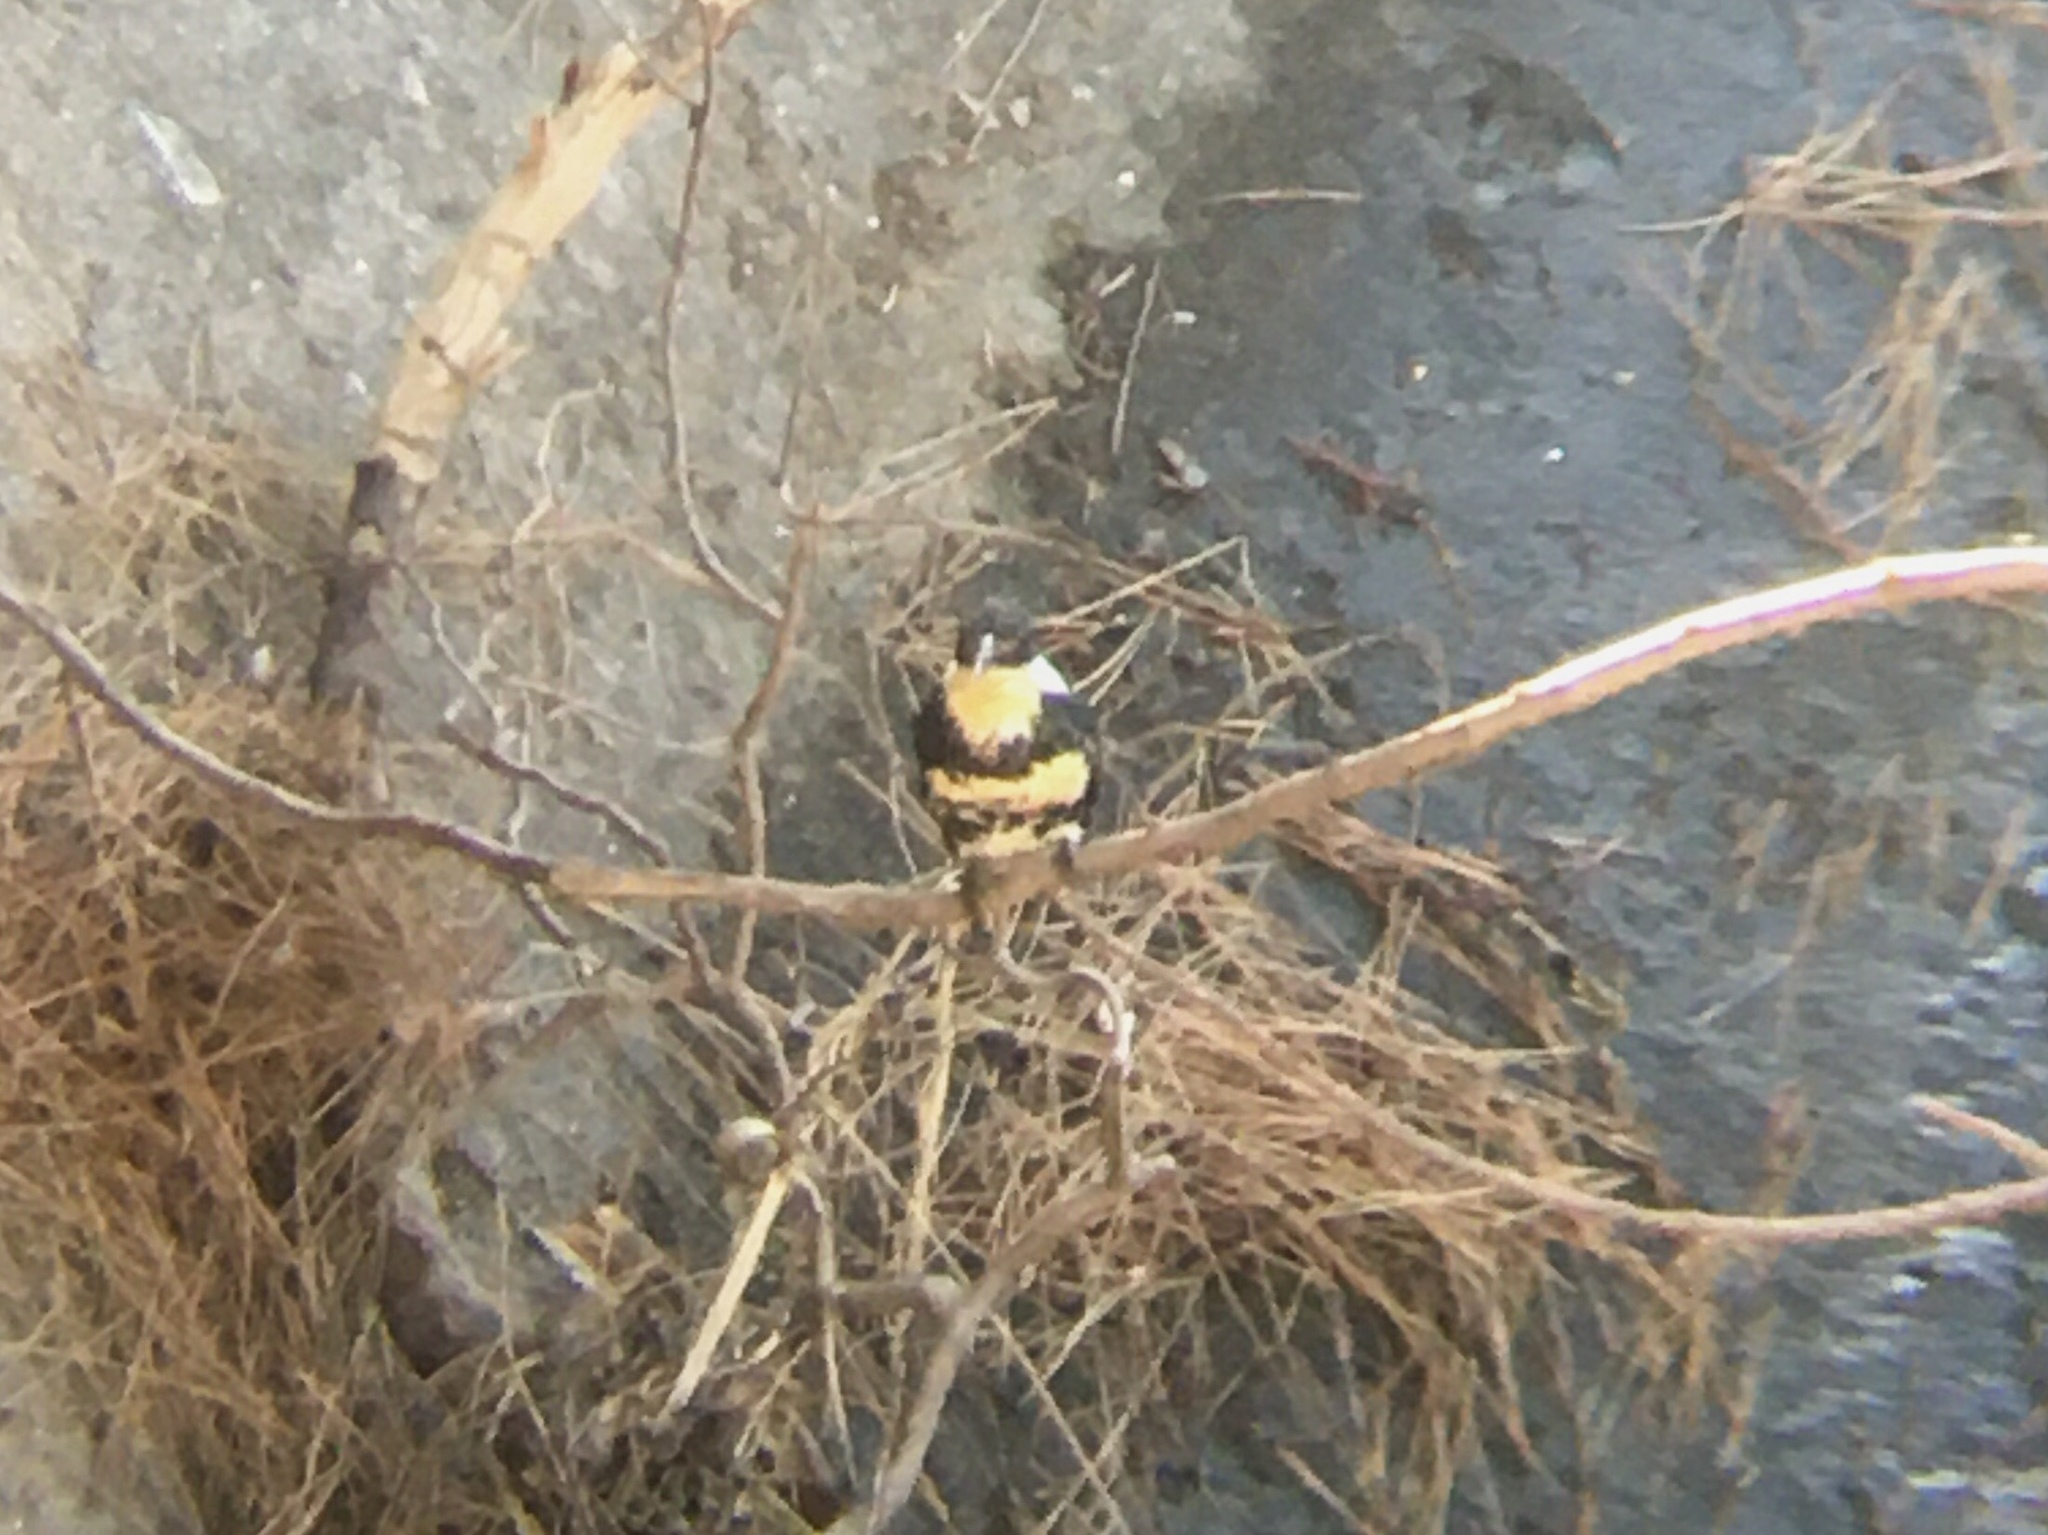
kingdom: Animalia
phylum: Chordata
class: Aves
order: Coraciiformes
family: Alcedinidae
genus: Chloroceryle
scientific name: Chloroceryle americana
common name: Green kingfisher
